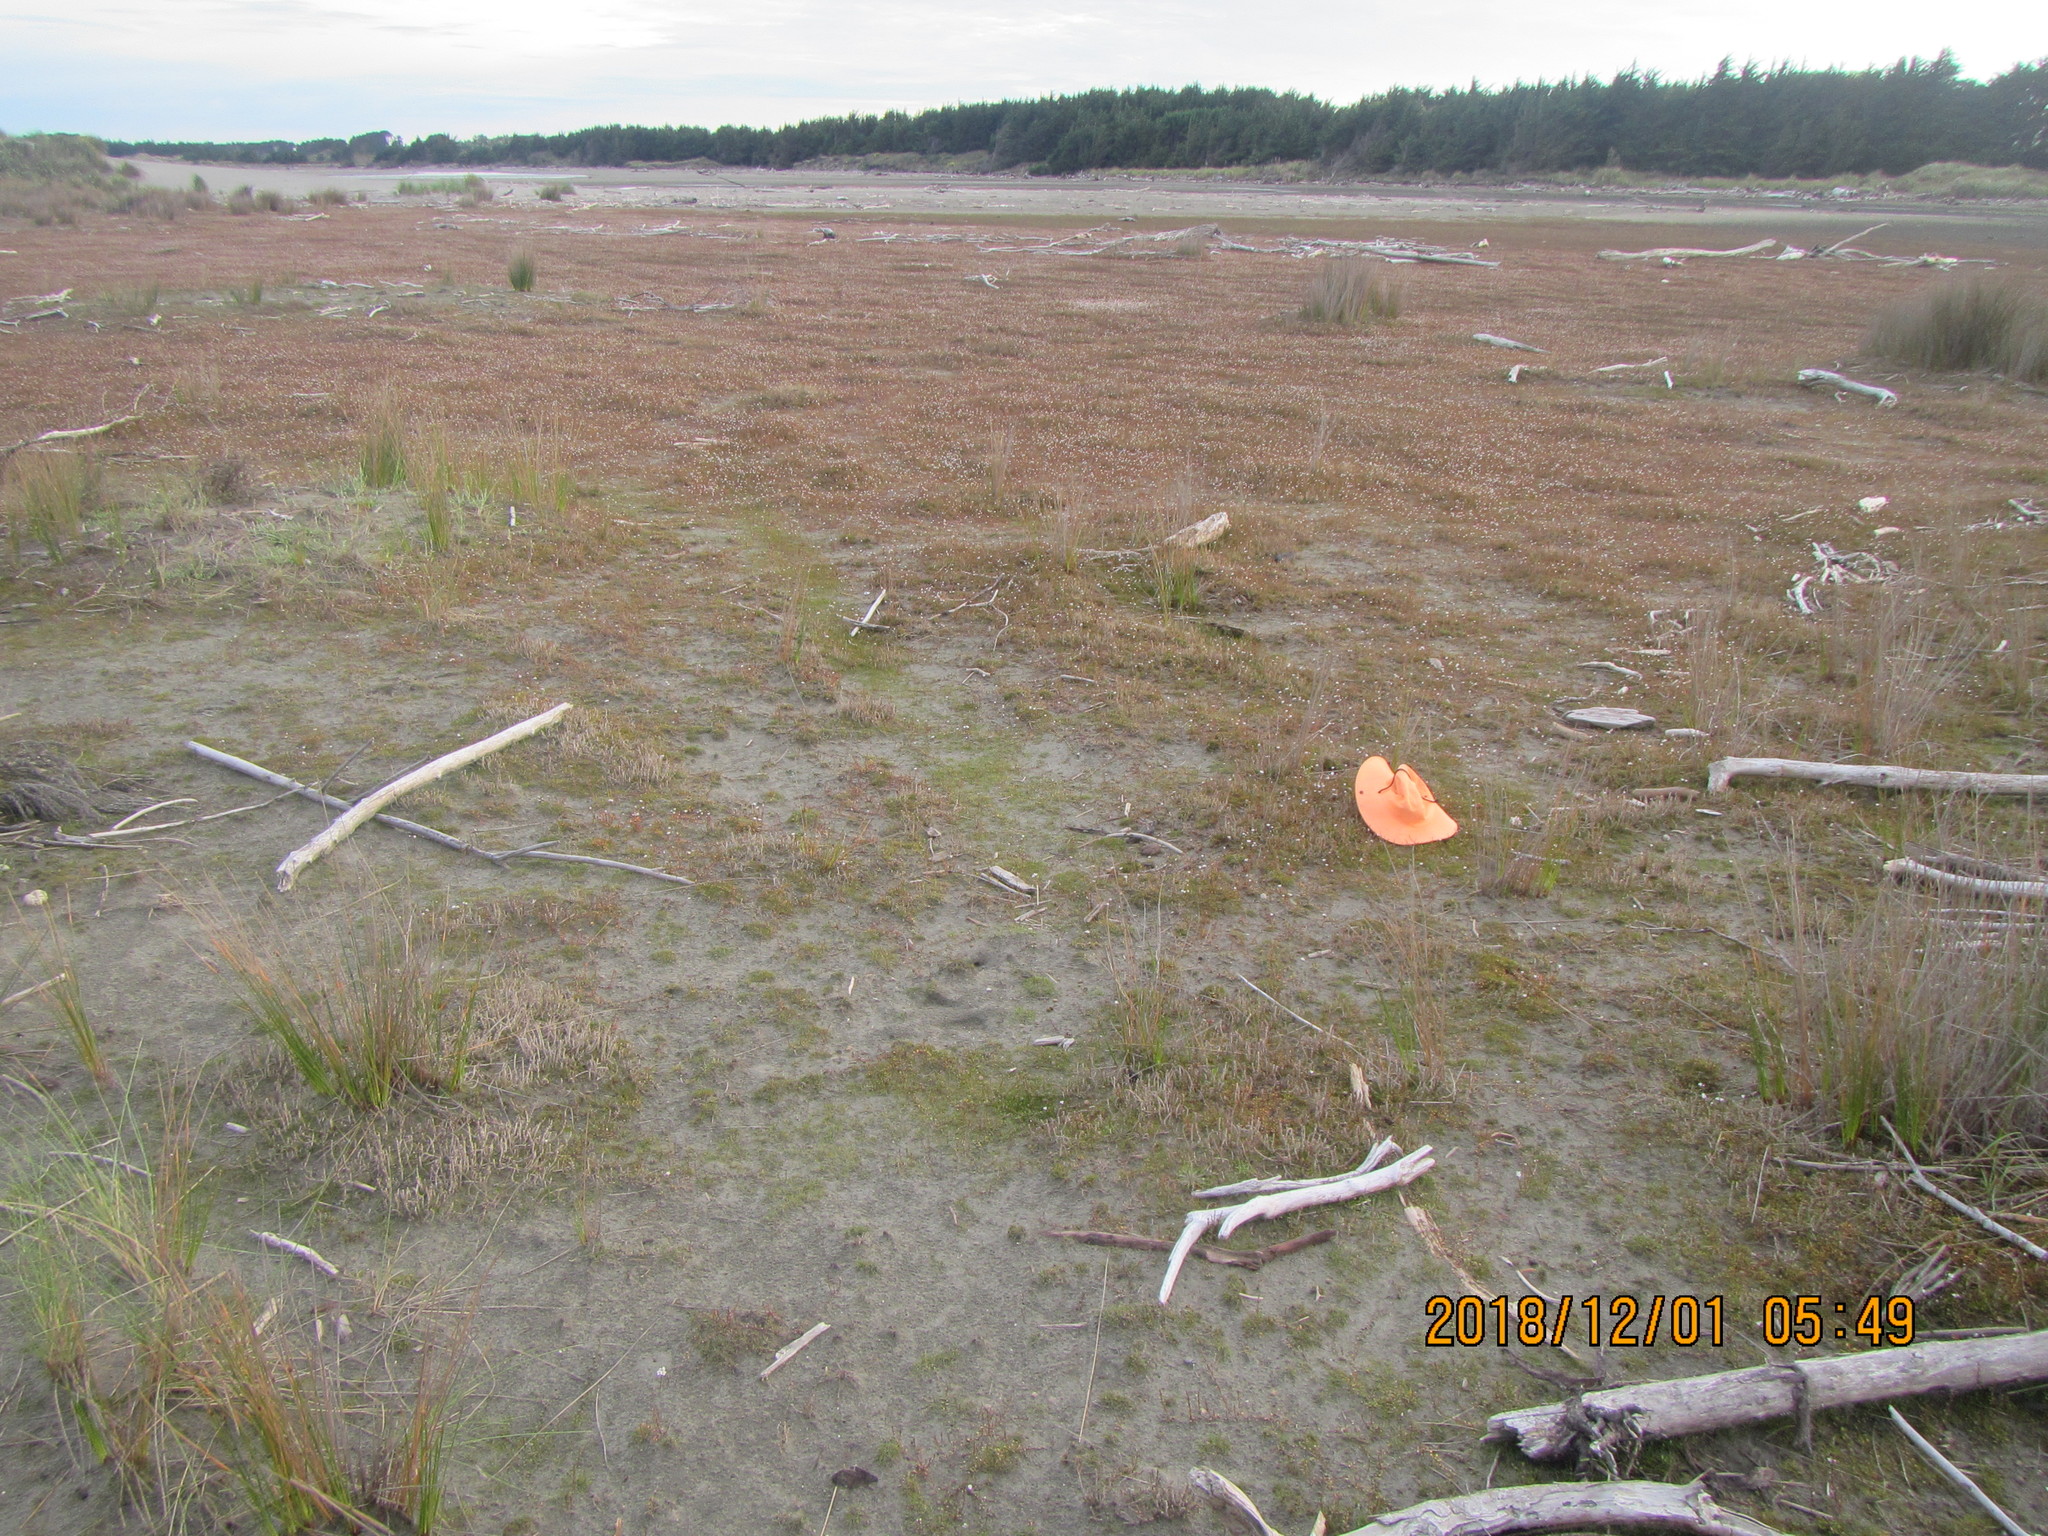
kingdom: Animalia
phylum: Mollusca
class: Gastropoda
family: Amphibolidae
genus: Amphibola
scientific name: Amphibola crenata
